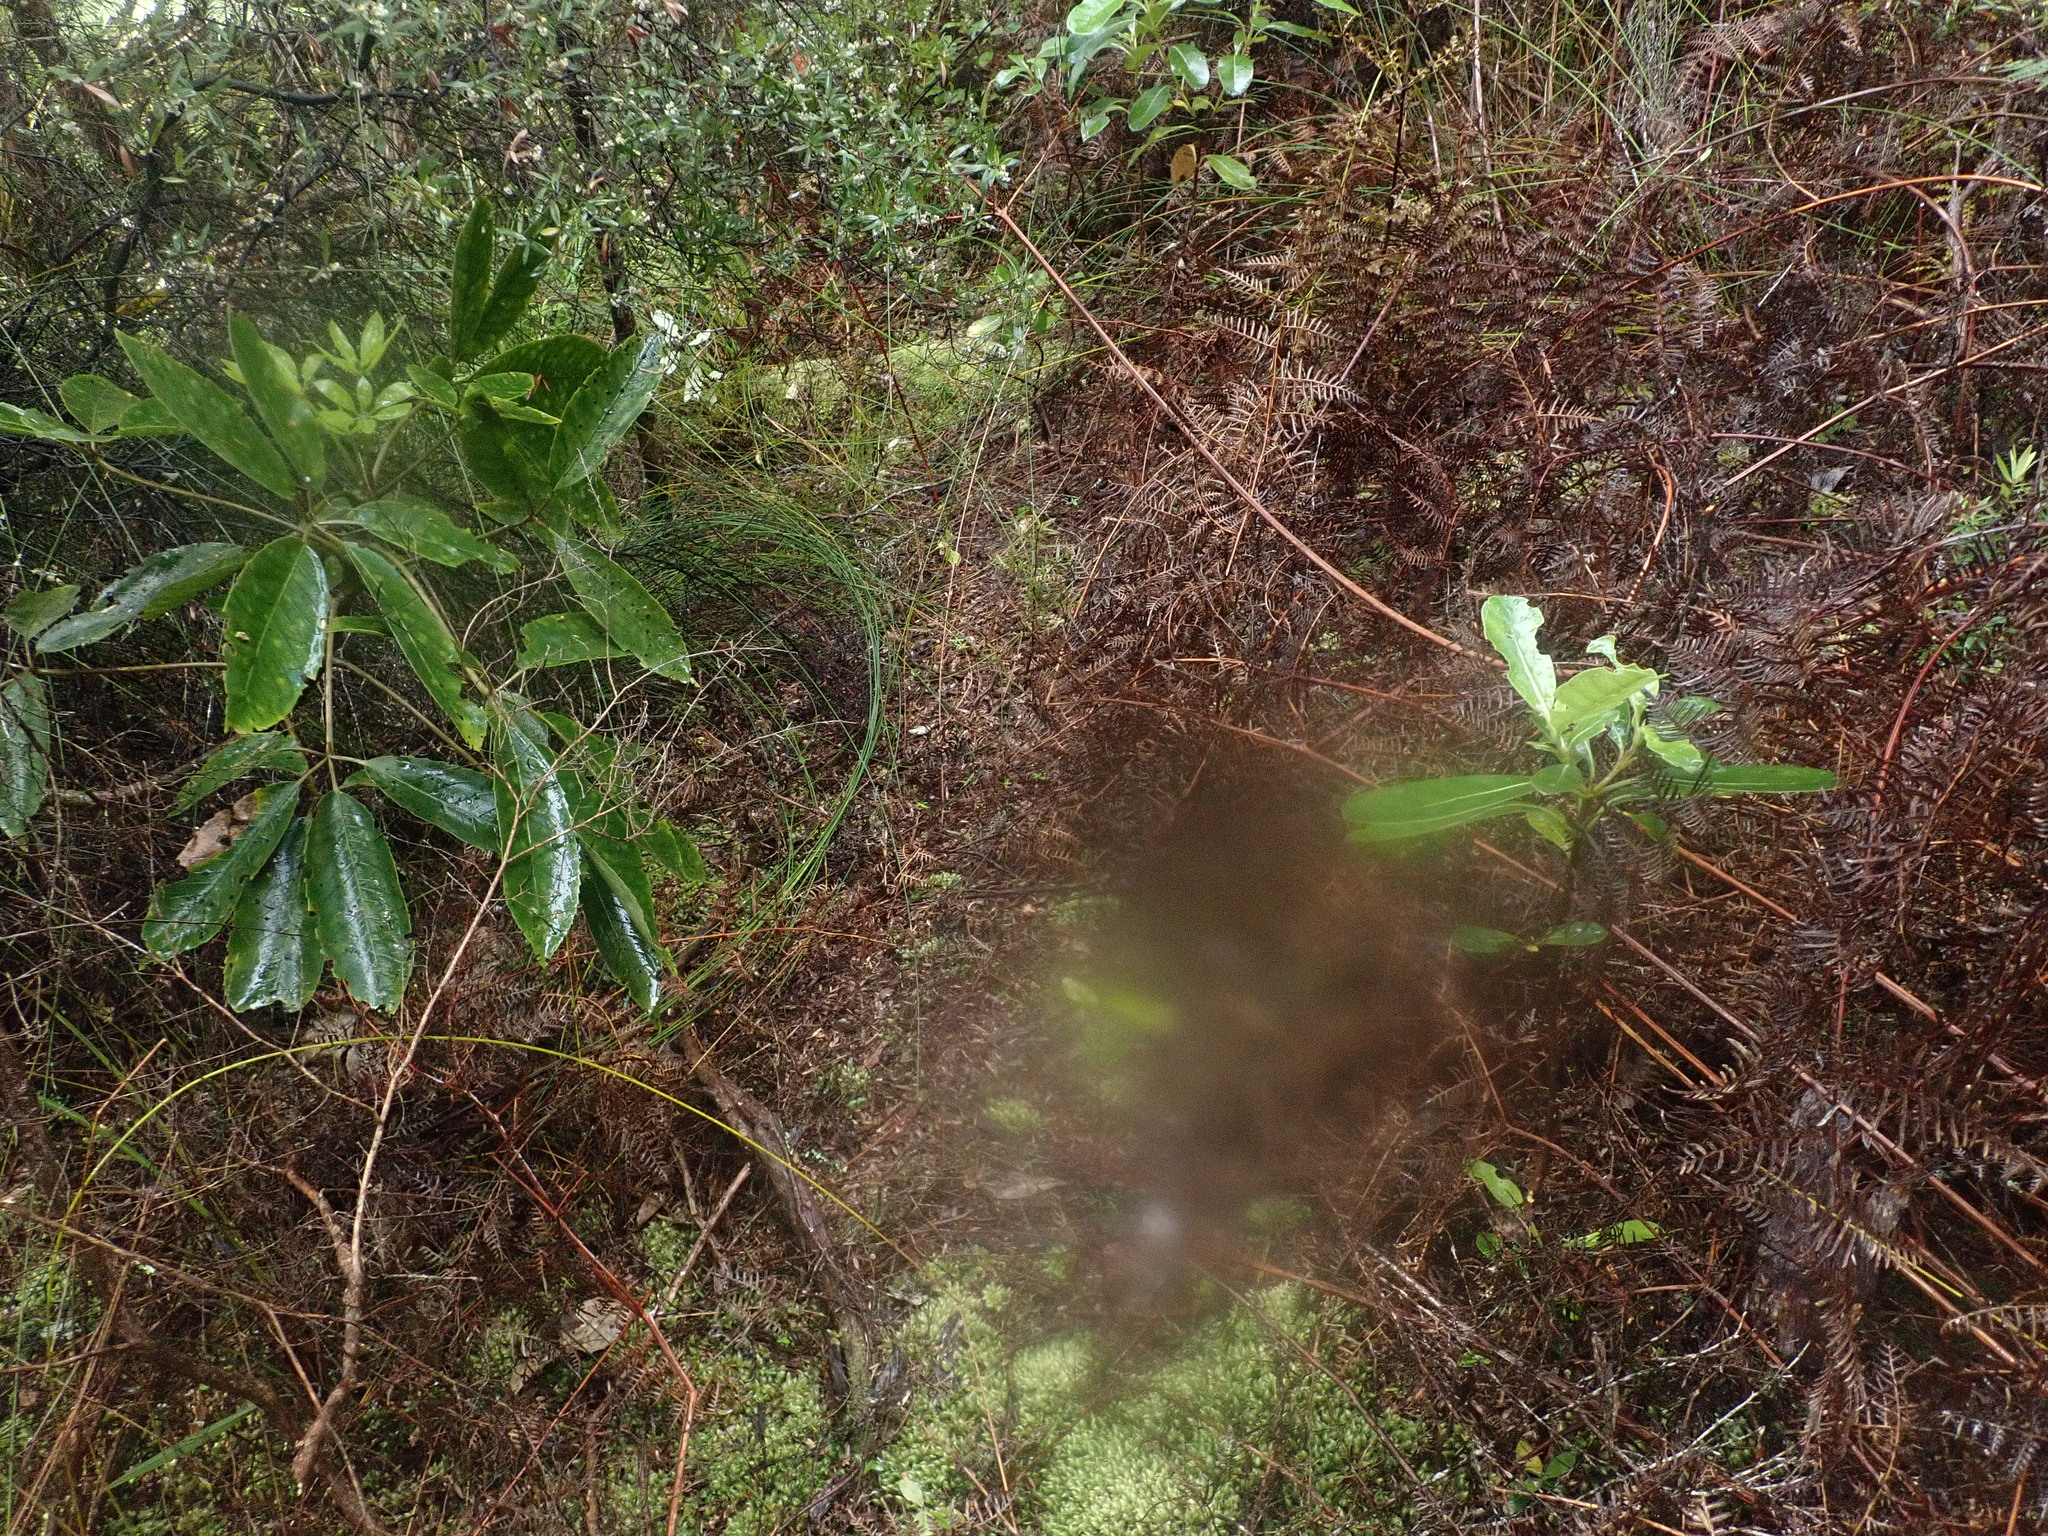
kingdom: Plantae
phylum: Tracheophyta
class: Magnoliopsida
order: Apiales
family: Araliaceae
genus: Neopanax
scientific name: Neopanax arboreus
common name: Five-fingers
